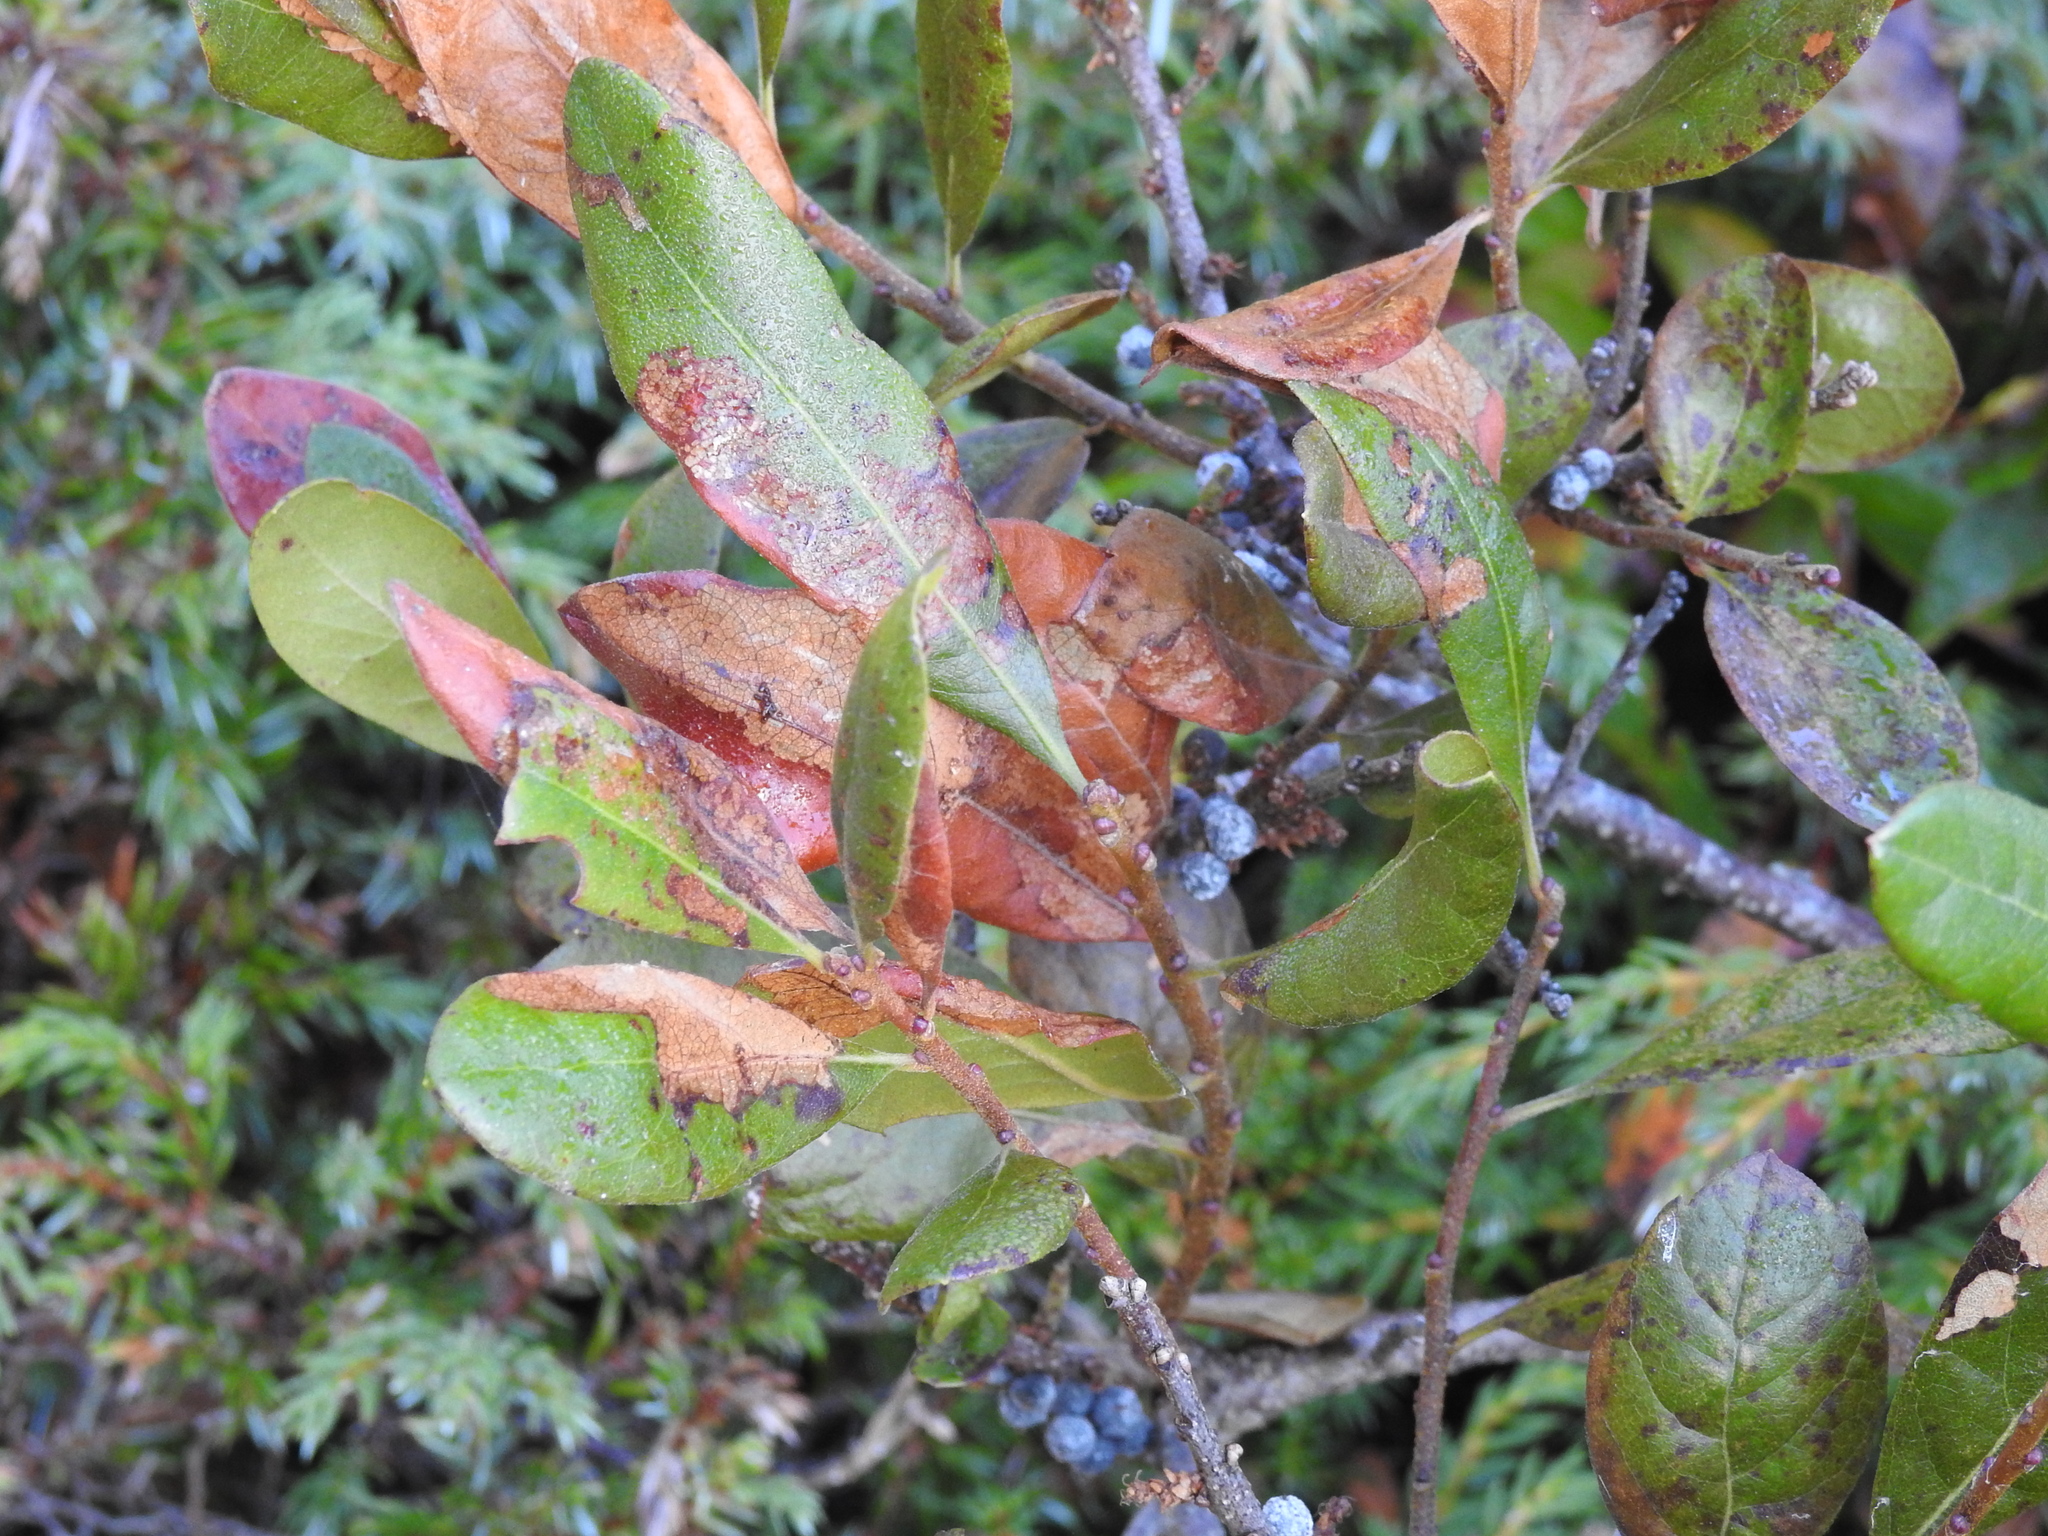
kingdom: Plantae
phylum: Tracheophyta
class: Magnoliopsida
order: Fagales
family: Myricaceae
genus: Morella
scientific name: Morella pensylvanica
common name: Northern bayberry
